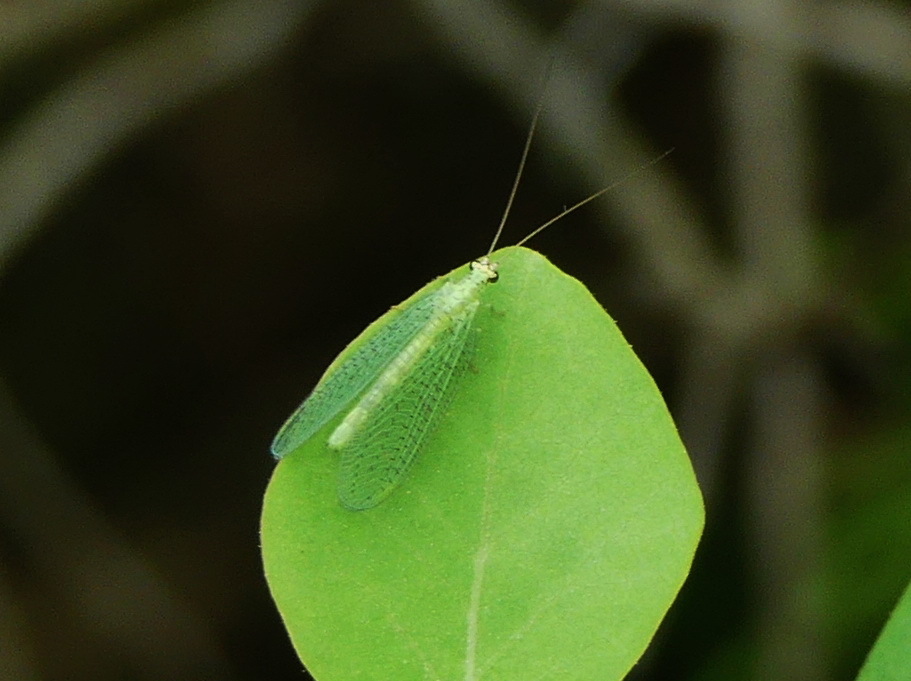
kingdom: Animalia
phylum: Arthropoda
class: Insecta
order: Neuroptera
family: Chrysopidae
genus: Chrysopa
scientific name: Chrysopa oculata
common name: Golden-eyed lacewing
